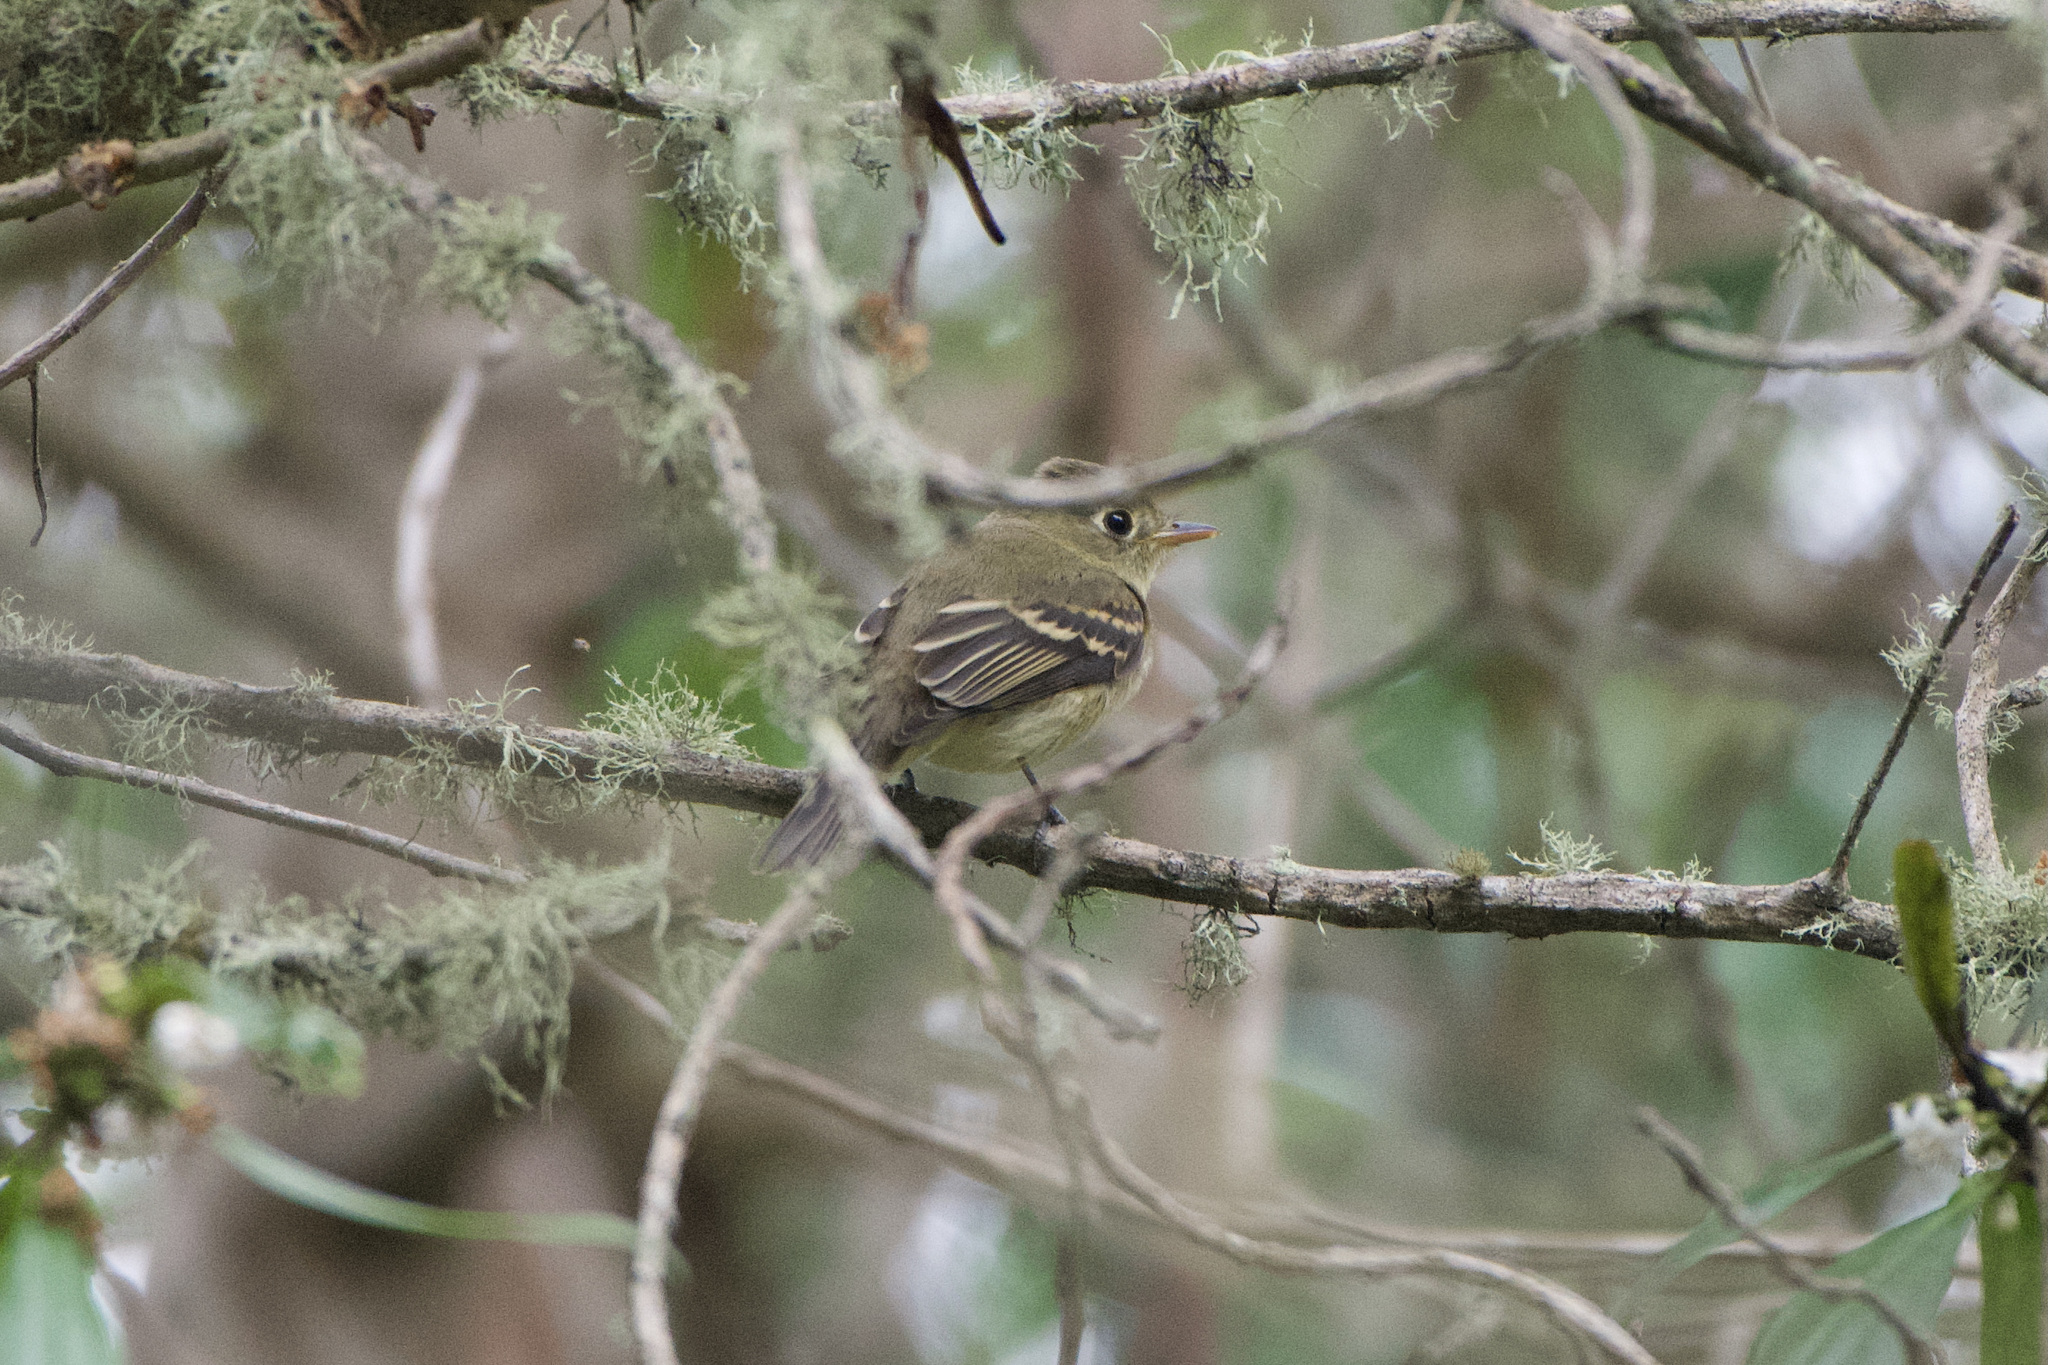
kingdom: Animalia
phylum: Chordata
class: Aves
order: Passeriformes
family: Tyrannidae
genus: Empidonax
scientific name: Empidonax difficilis
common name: Pacific-slope flycatcher
